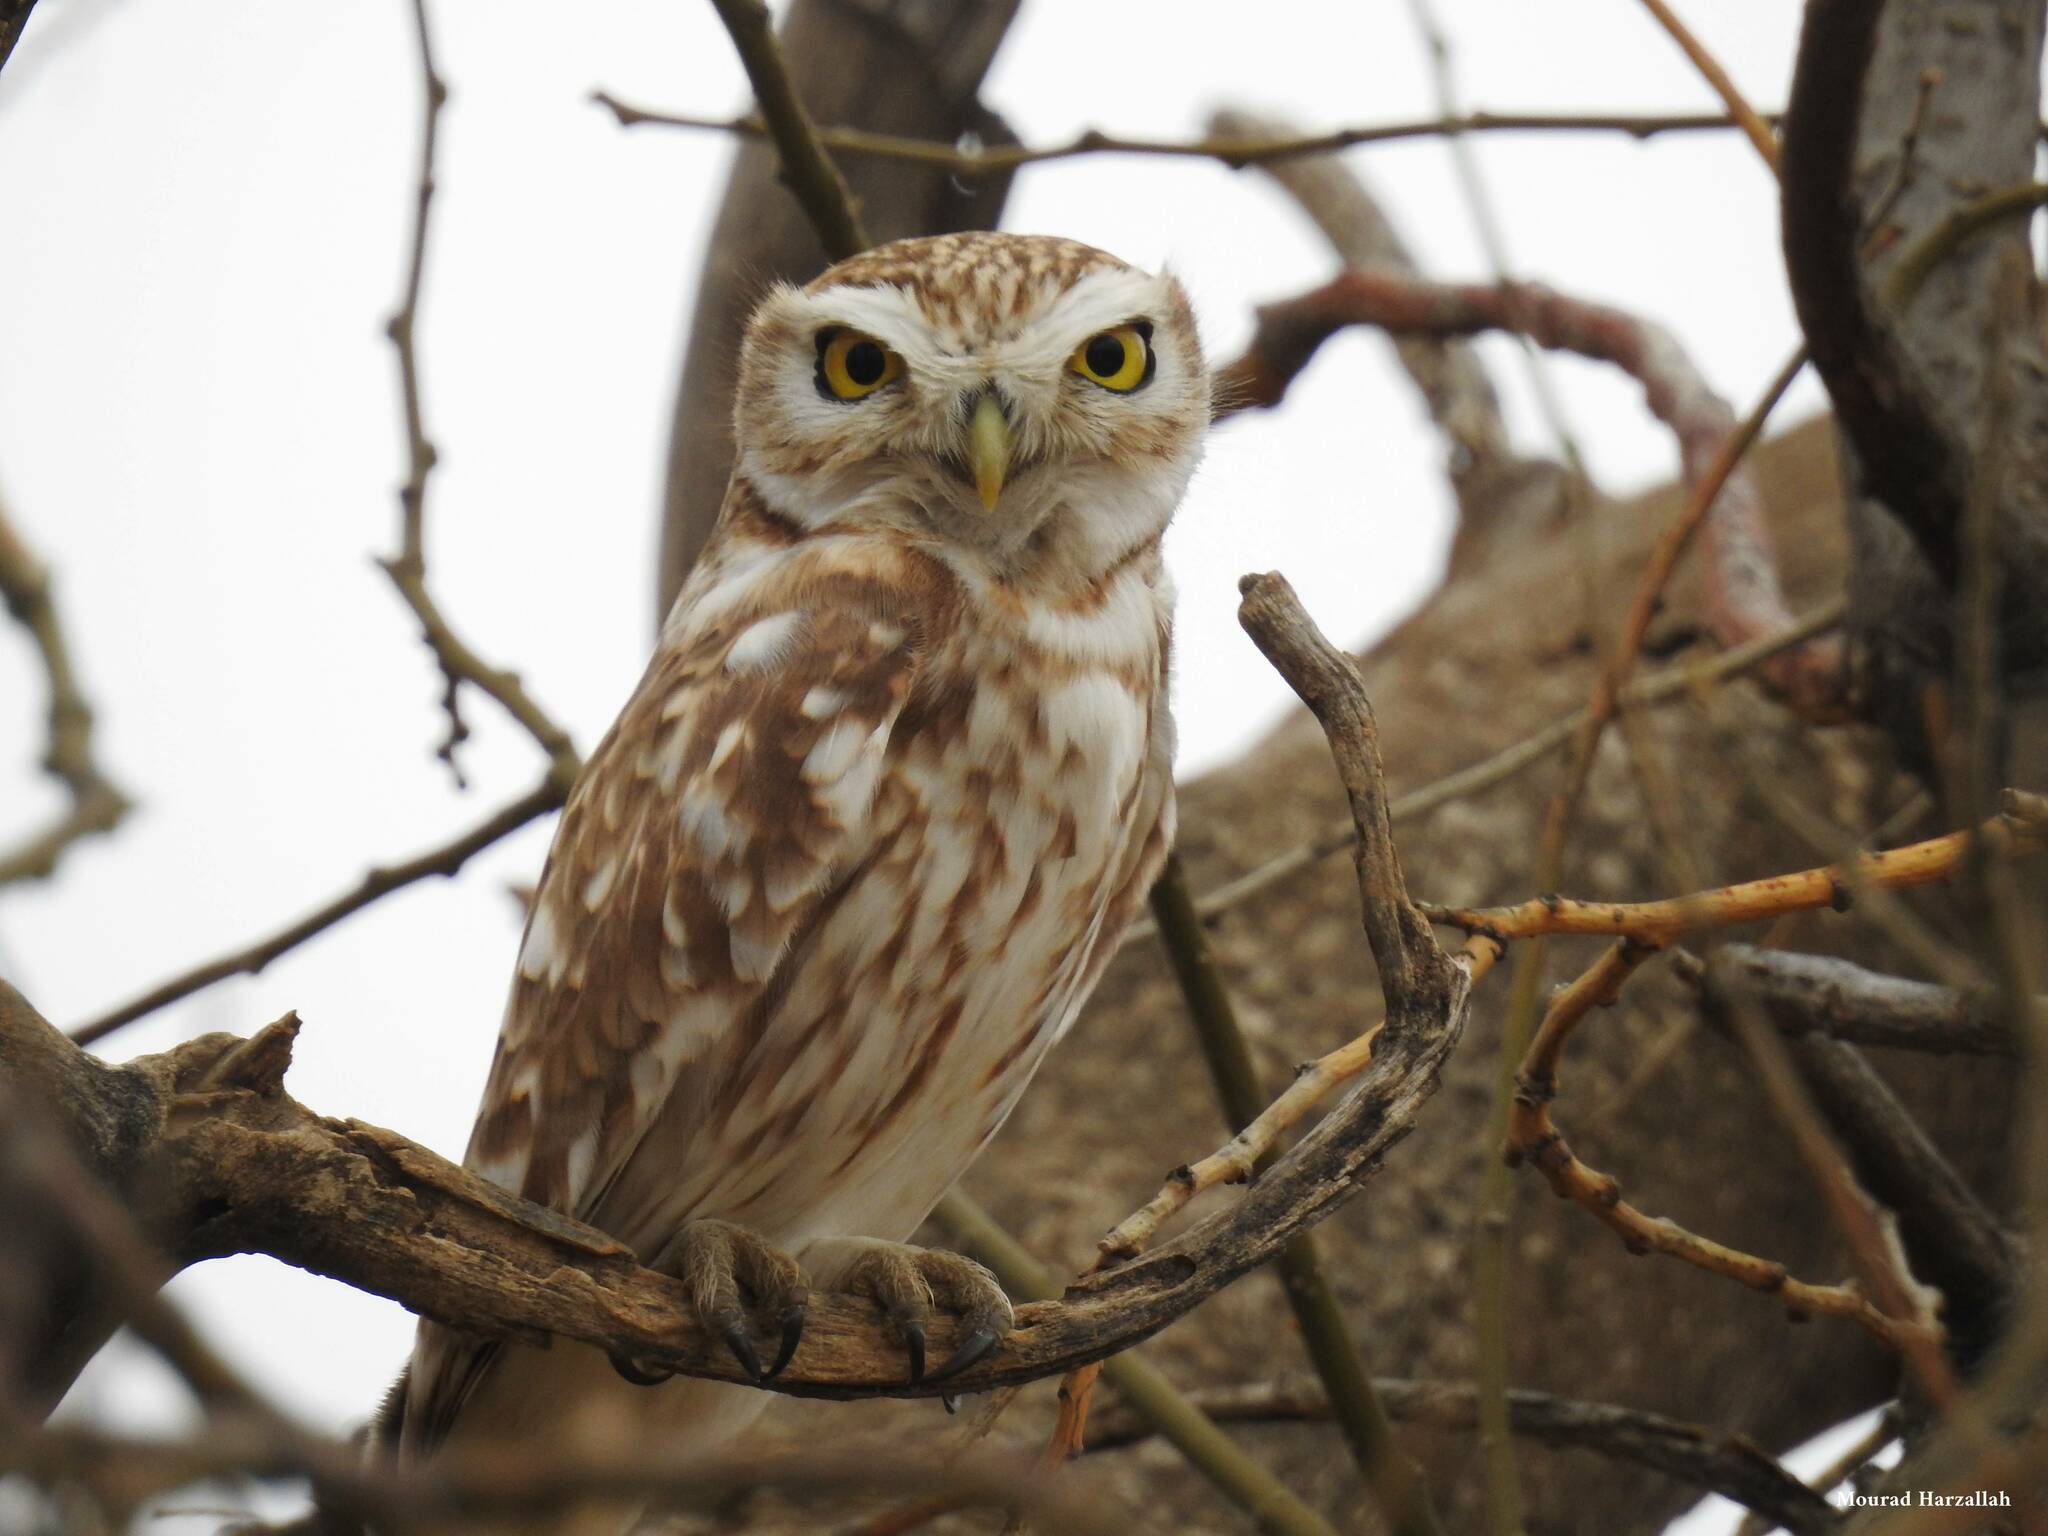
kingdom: Animalia
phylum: Chordata
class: Aves
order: Strigiformes
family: Strigidae
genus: Athene
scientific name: Athene noctua
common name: Little owl
